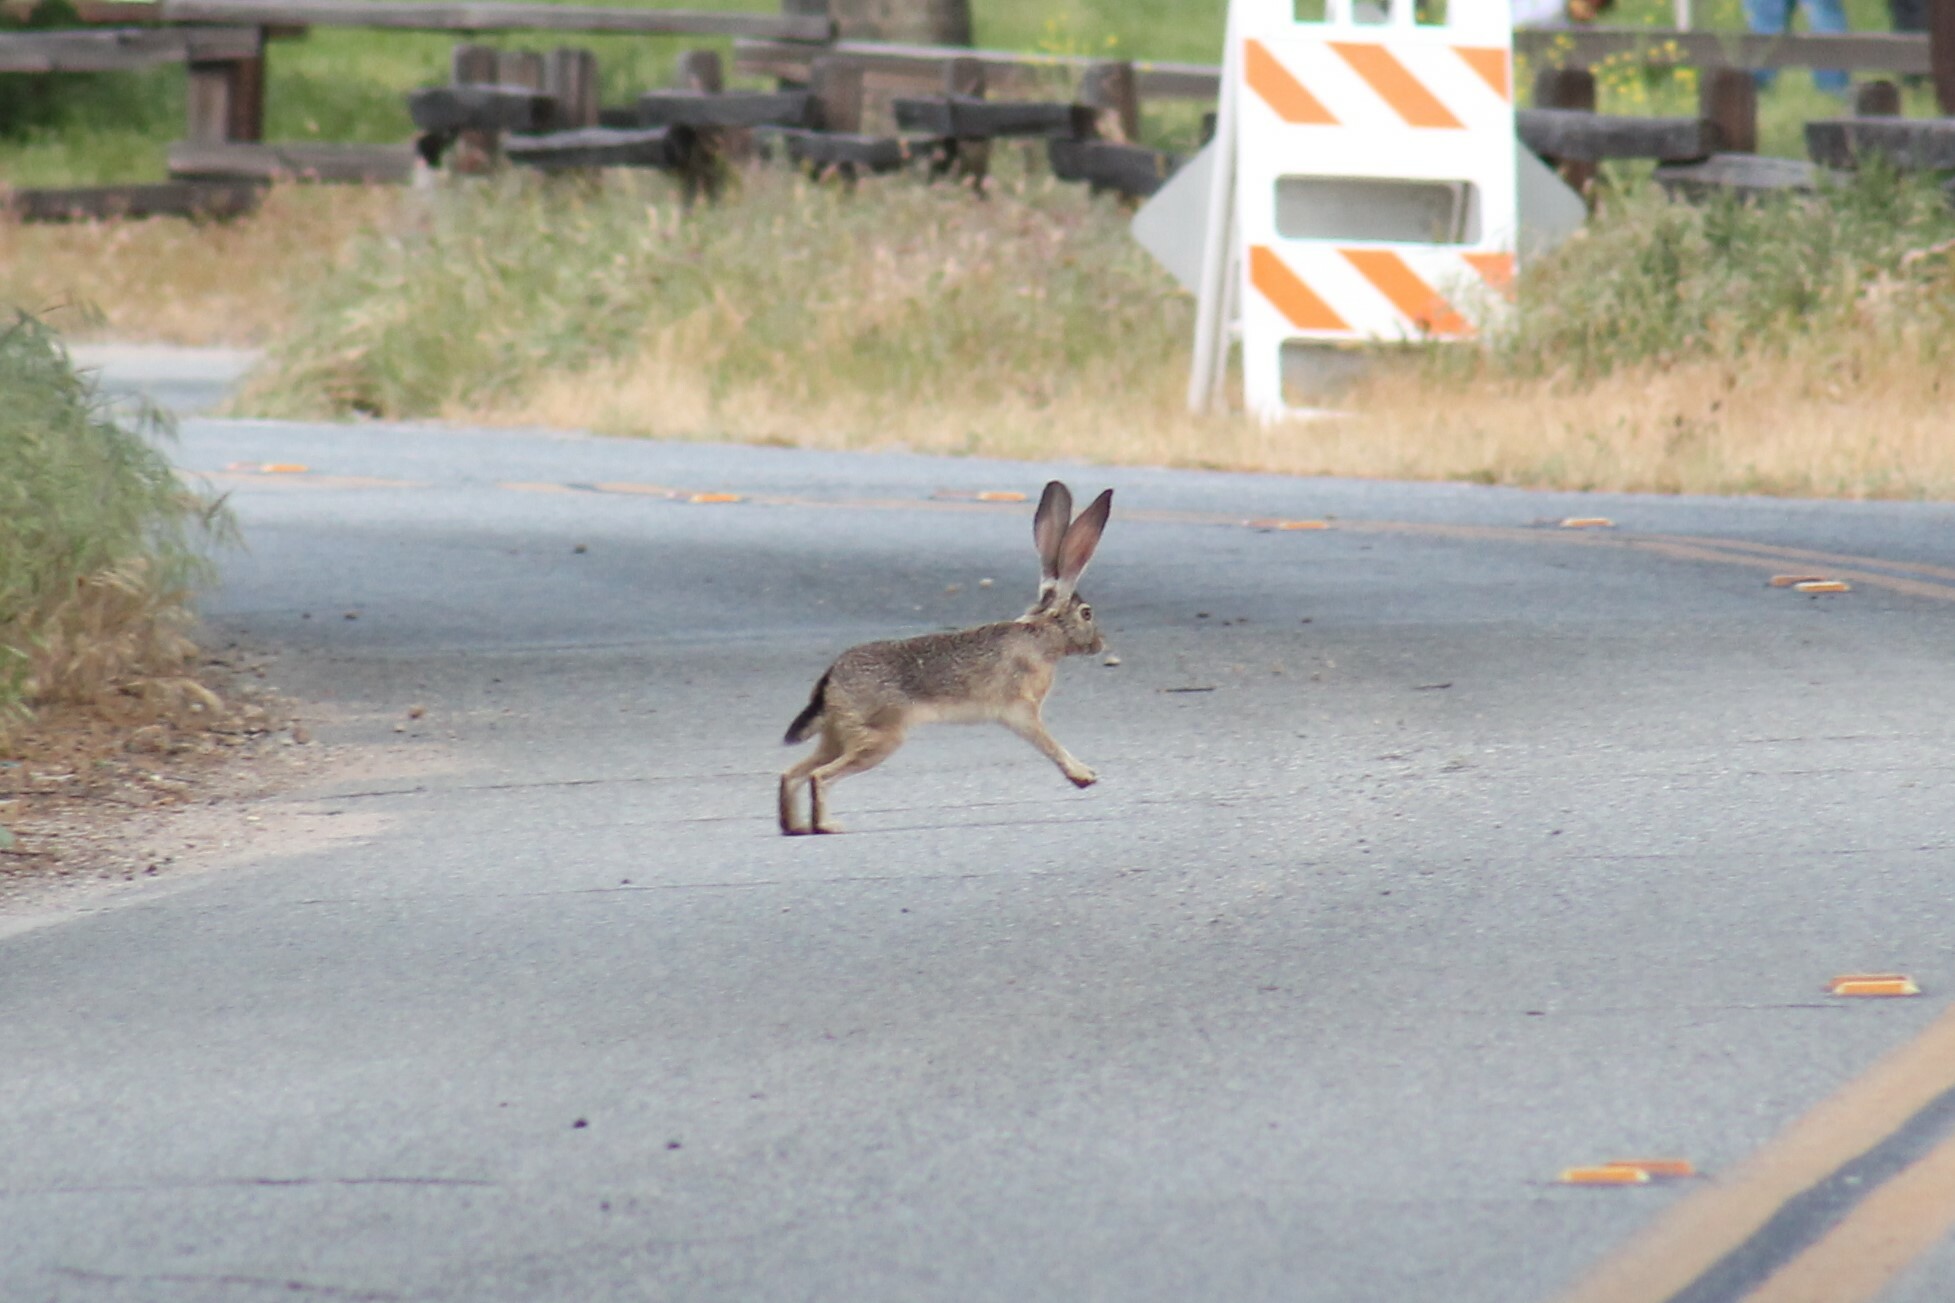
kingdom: Animalia
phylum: Chordata
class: Mammalia
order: Lagomorpha
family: Leporidae
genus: Lepus
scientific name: Lepus californicus
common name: Black-tailed jackrabbit
